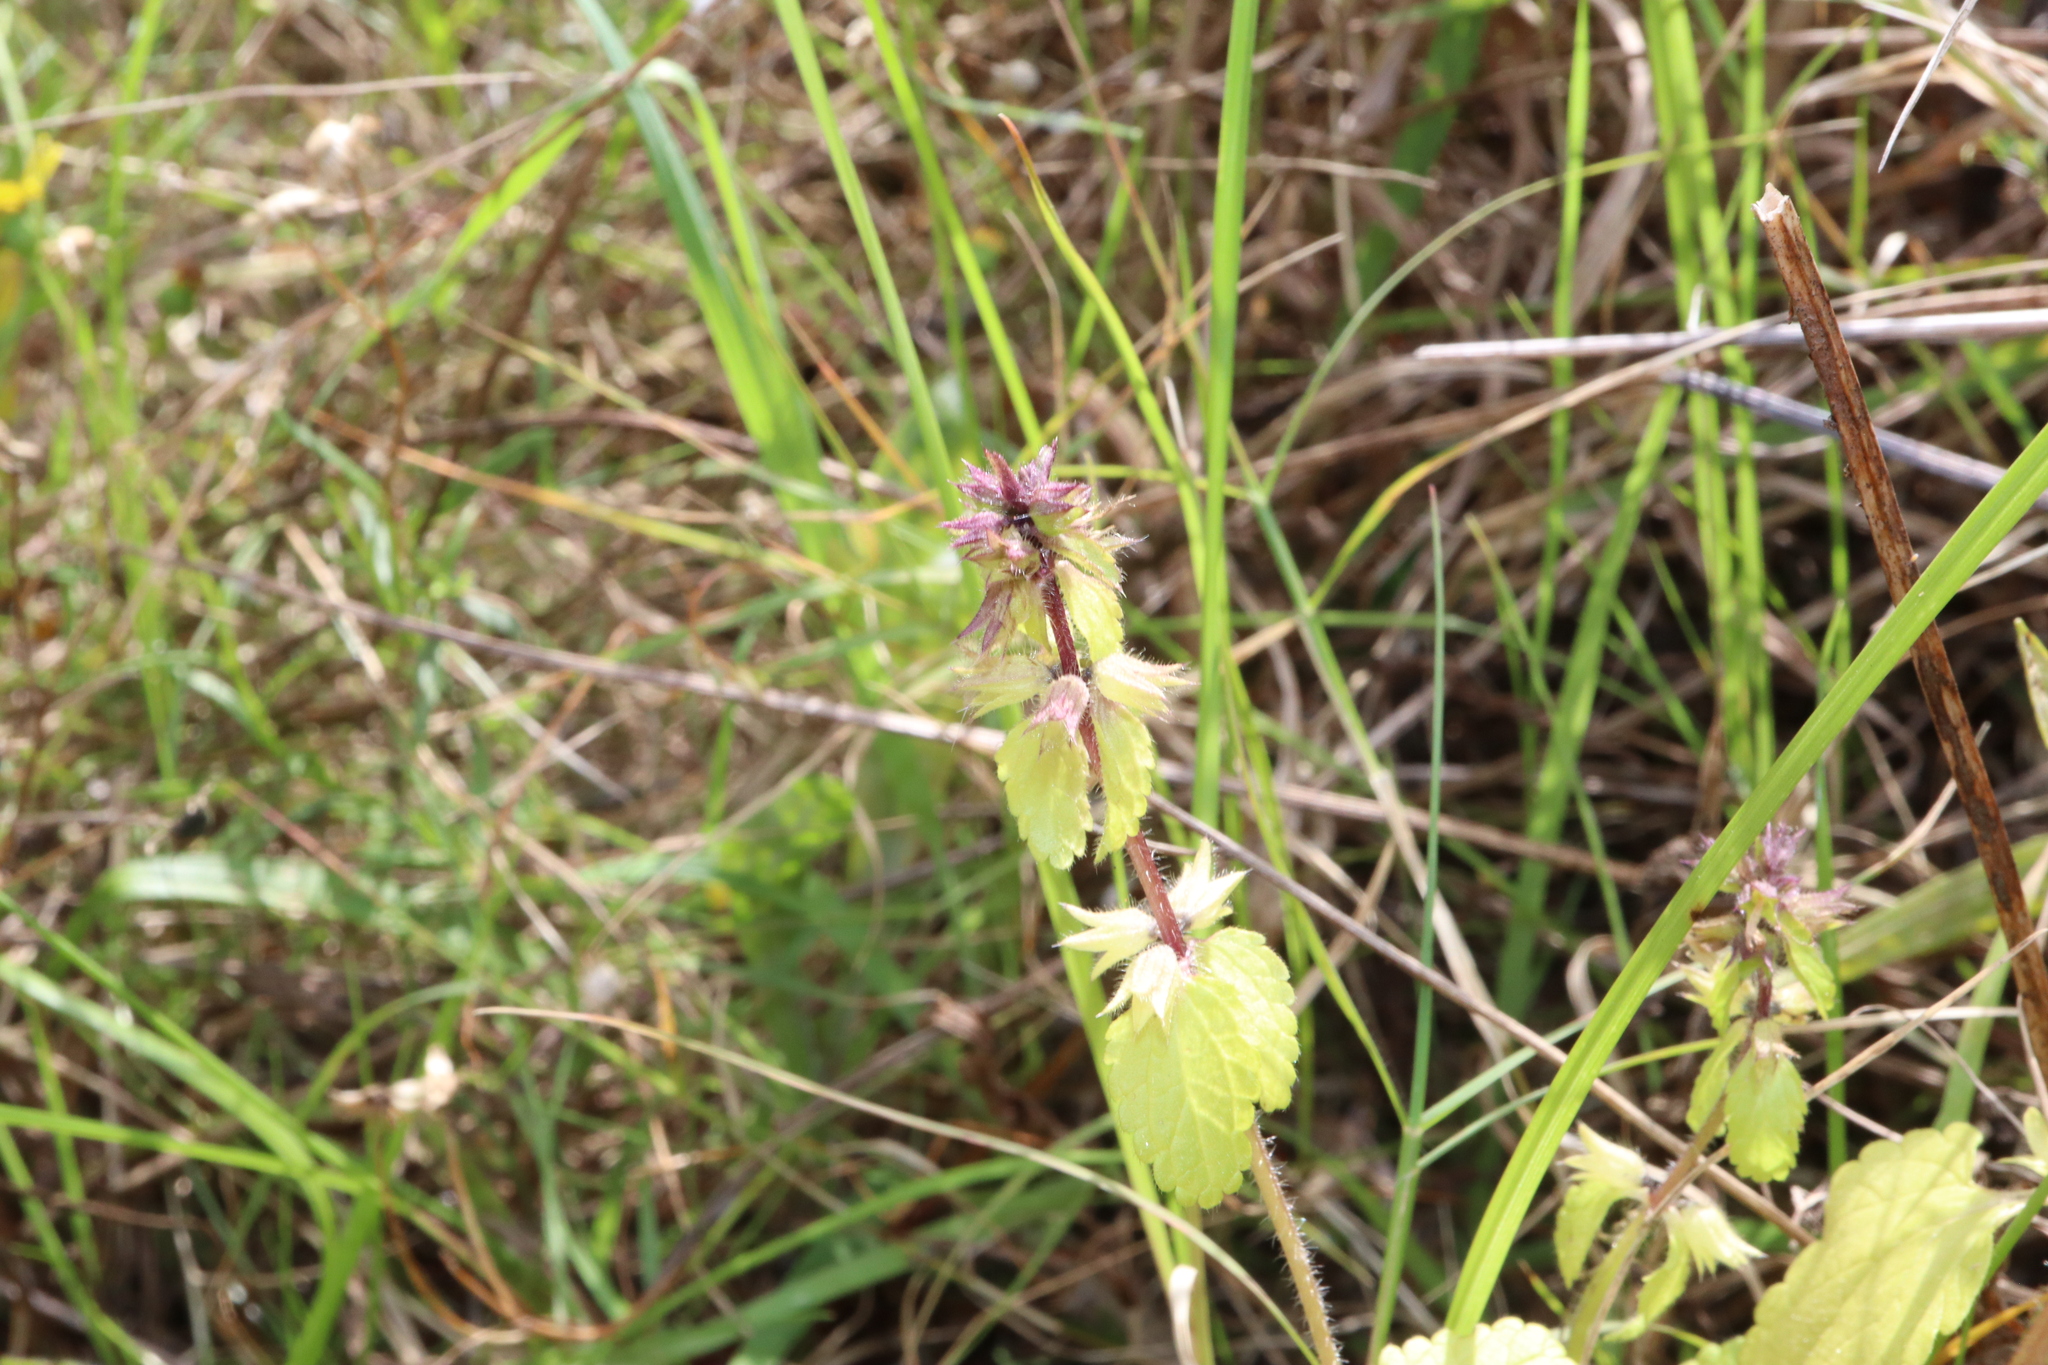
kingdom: Plantae
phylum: Tracheophyta
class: Magnoliopsida
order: Lamiales
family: Lamiaceae
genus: Stachys
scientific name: Stachys arvensis
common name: Field woundwort
